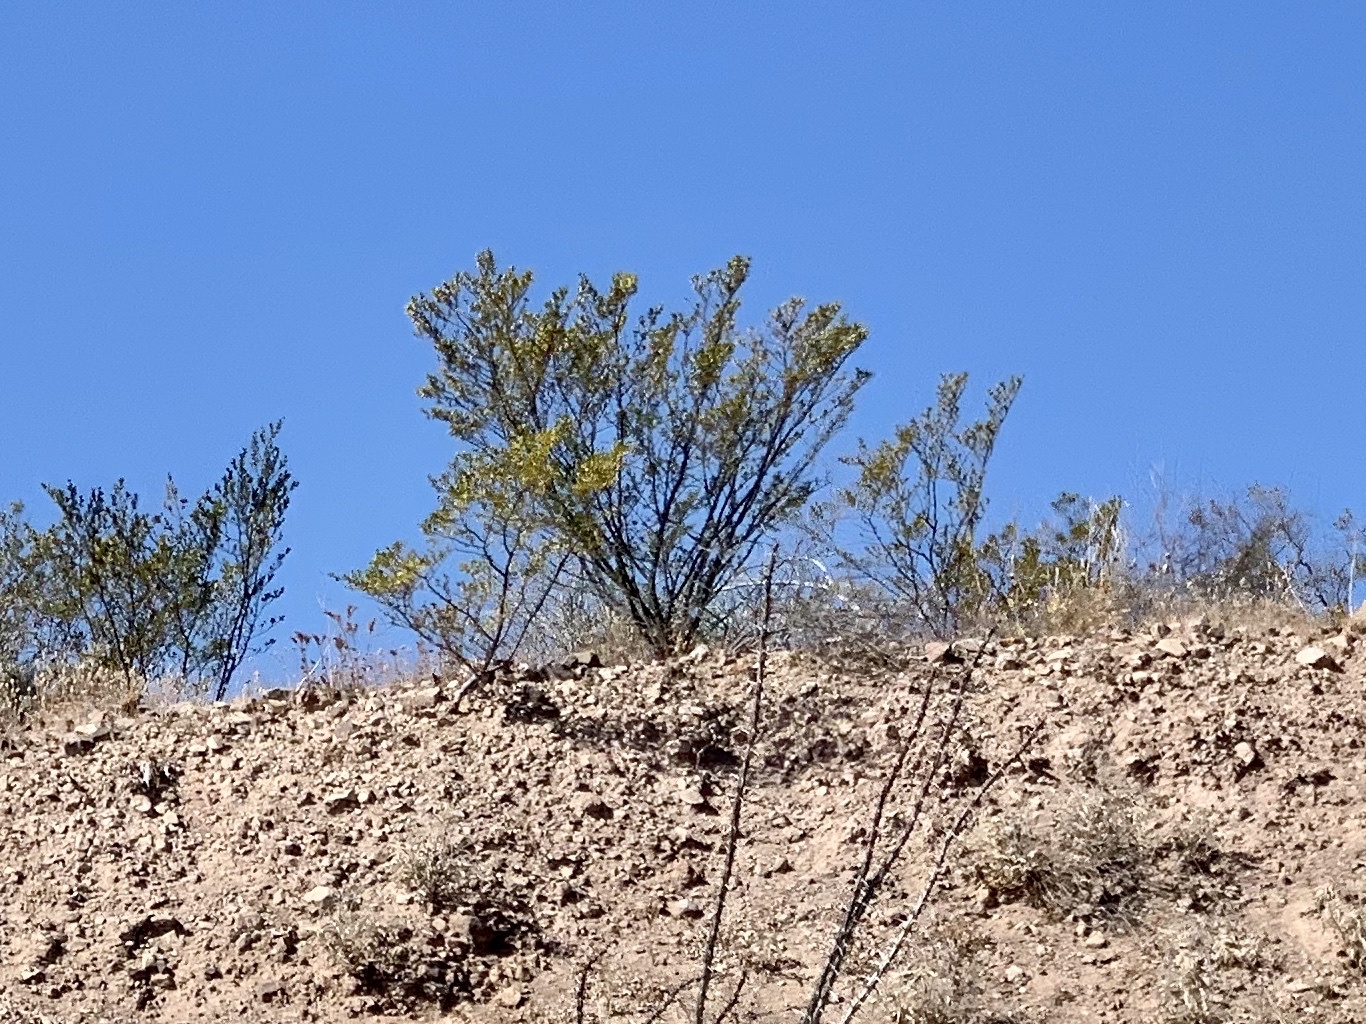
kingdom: Plantae
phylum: Tracheophyta
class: Magnoliopsida
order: Zygophyllales
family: Zygophyllaceae
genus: Larrea
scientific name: Larrea tridentata
